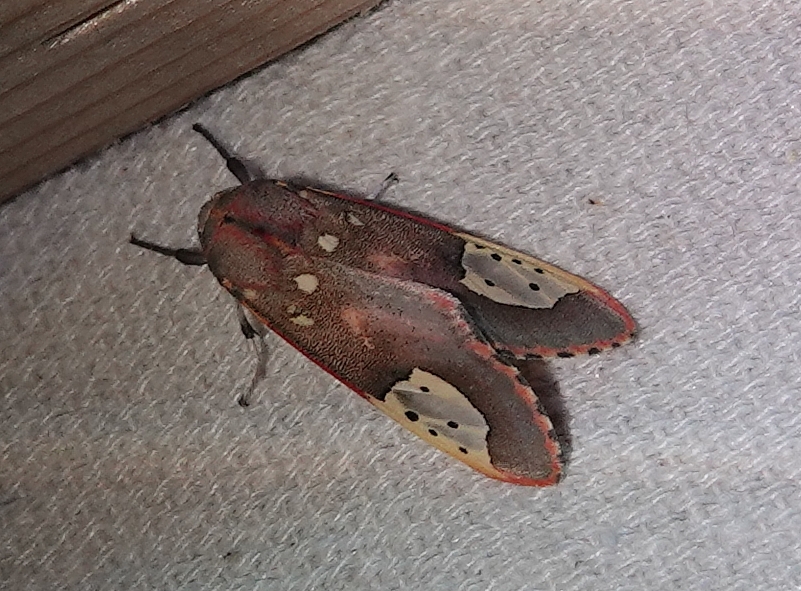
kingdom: Animalia
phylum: Arthropoda
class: Insecta
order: Lepidoptera
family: Erebidae
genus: Bertholdia
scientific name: Bertholdia trigona
